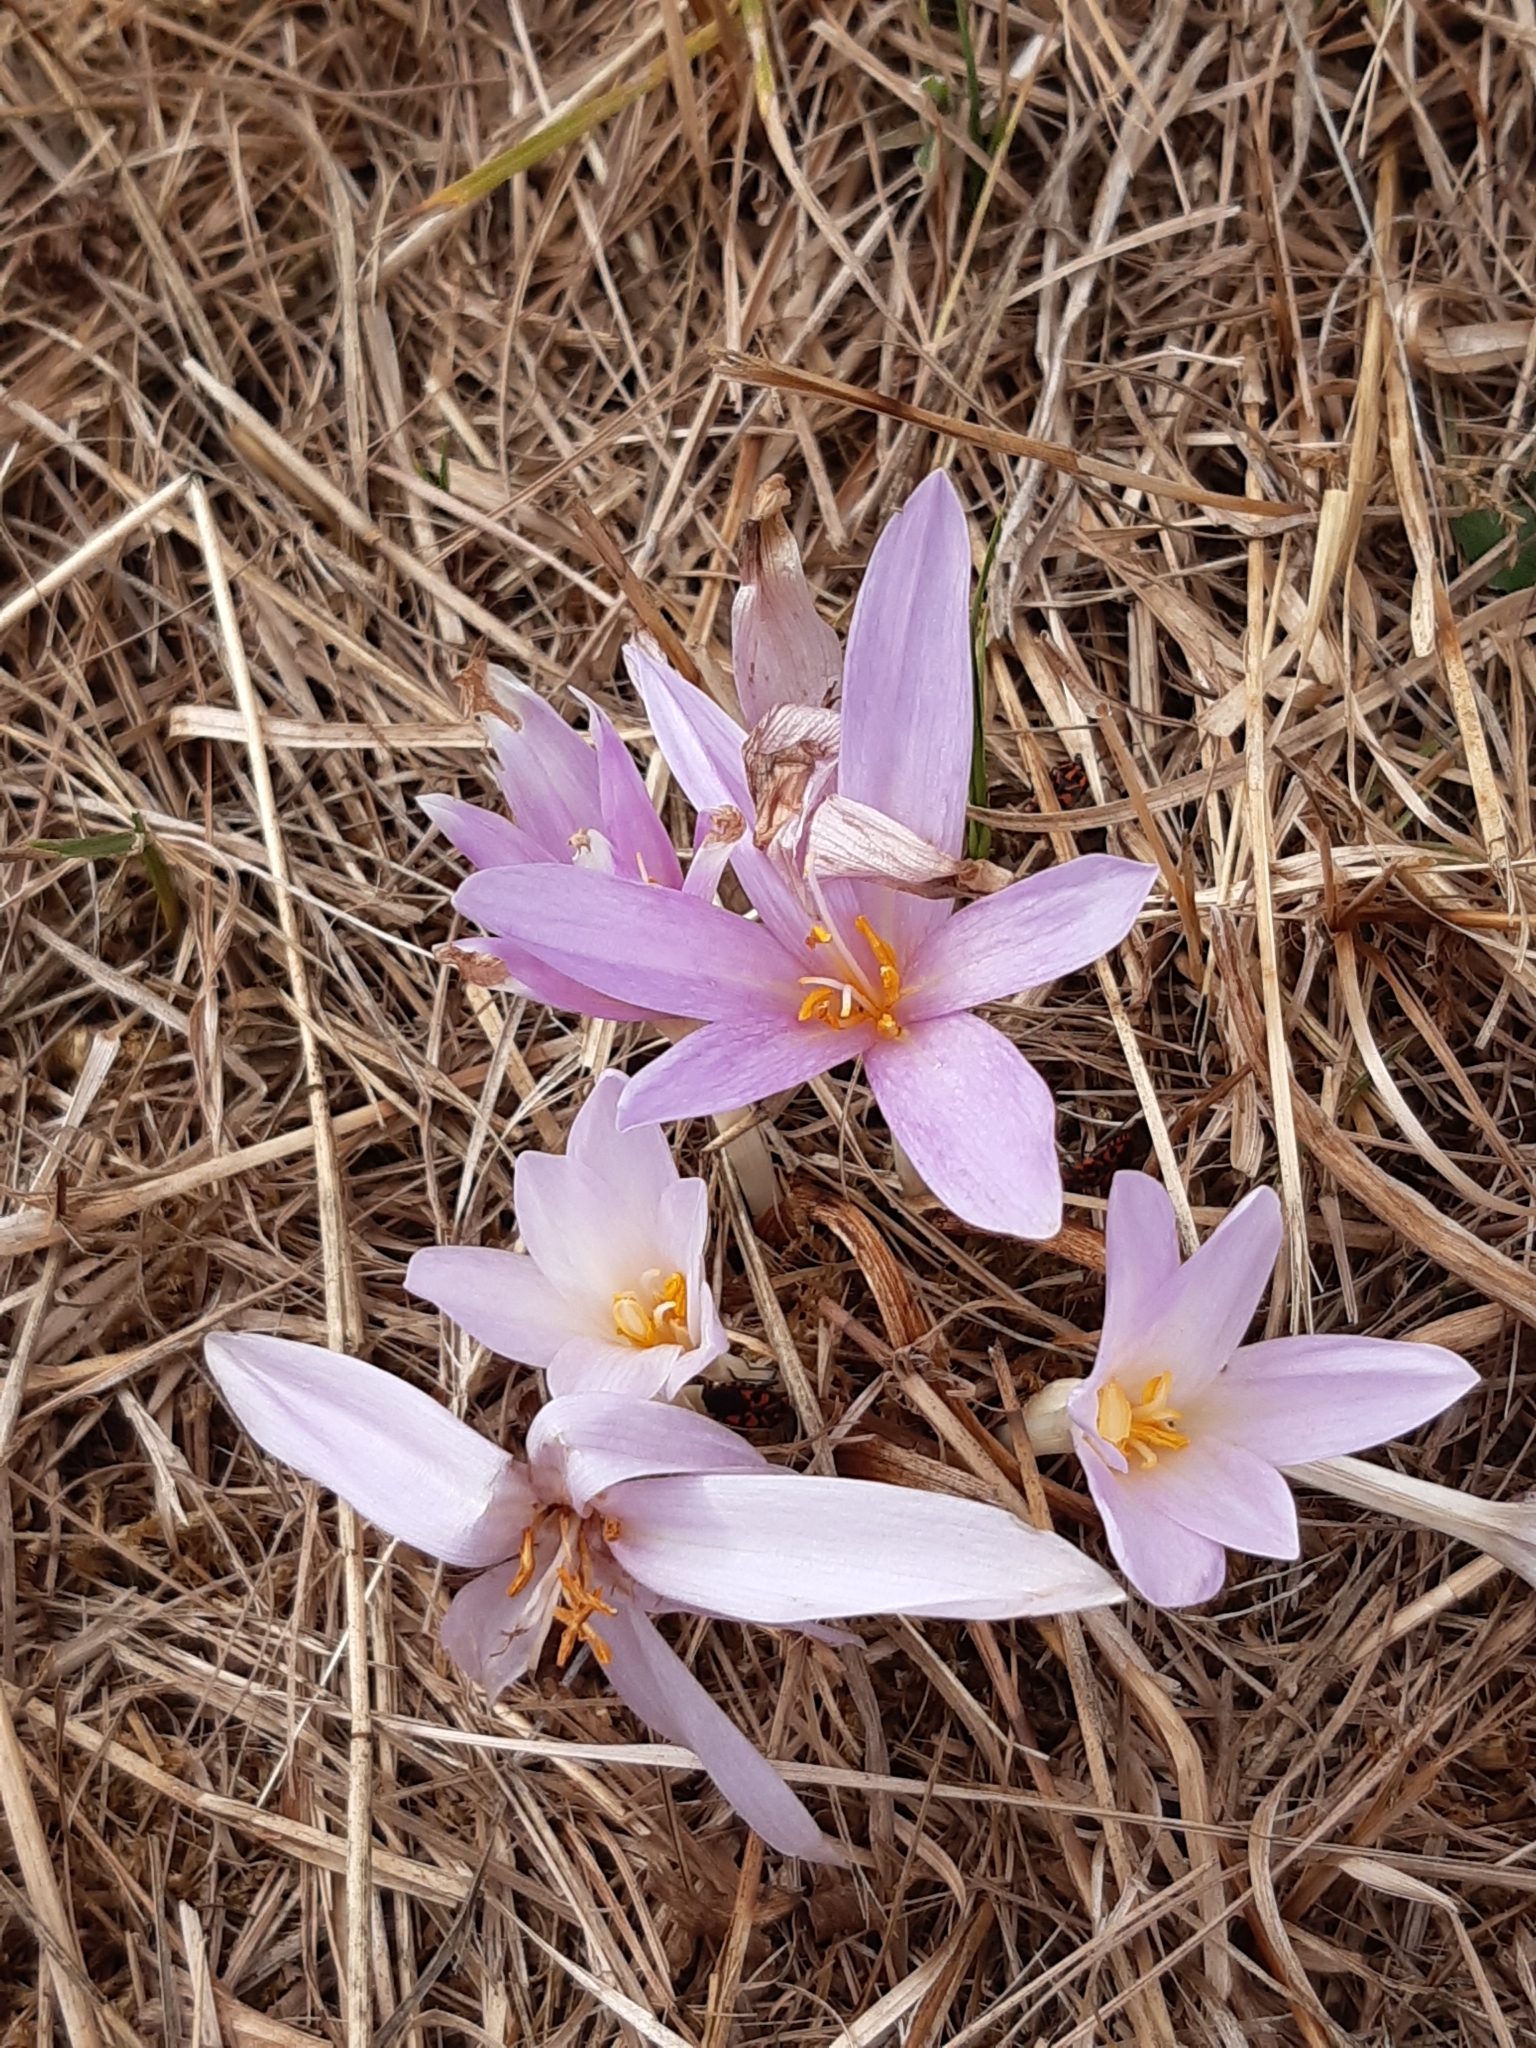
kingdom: Plantae
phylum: Tracheophyta
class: Liliopsida
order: Liliales
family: Colchicaceae
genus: Colchicum
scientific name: Colchicum autumnale
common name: Autumn crocus
